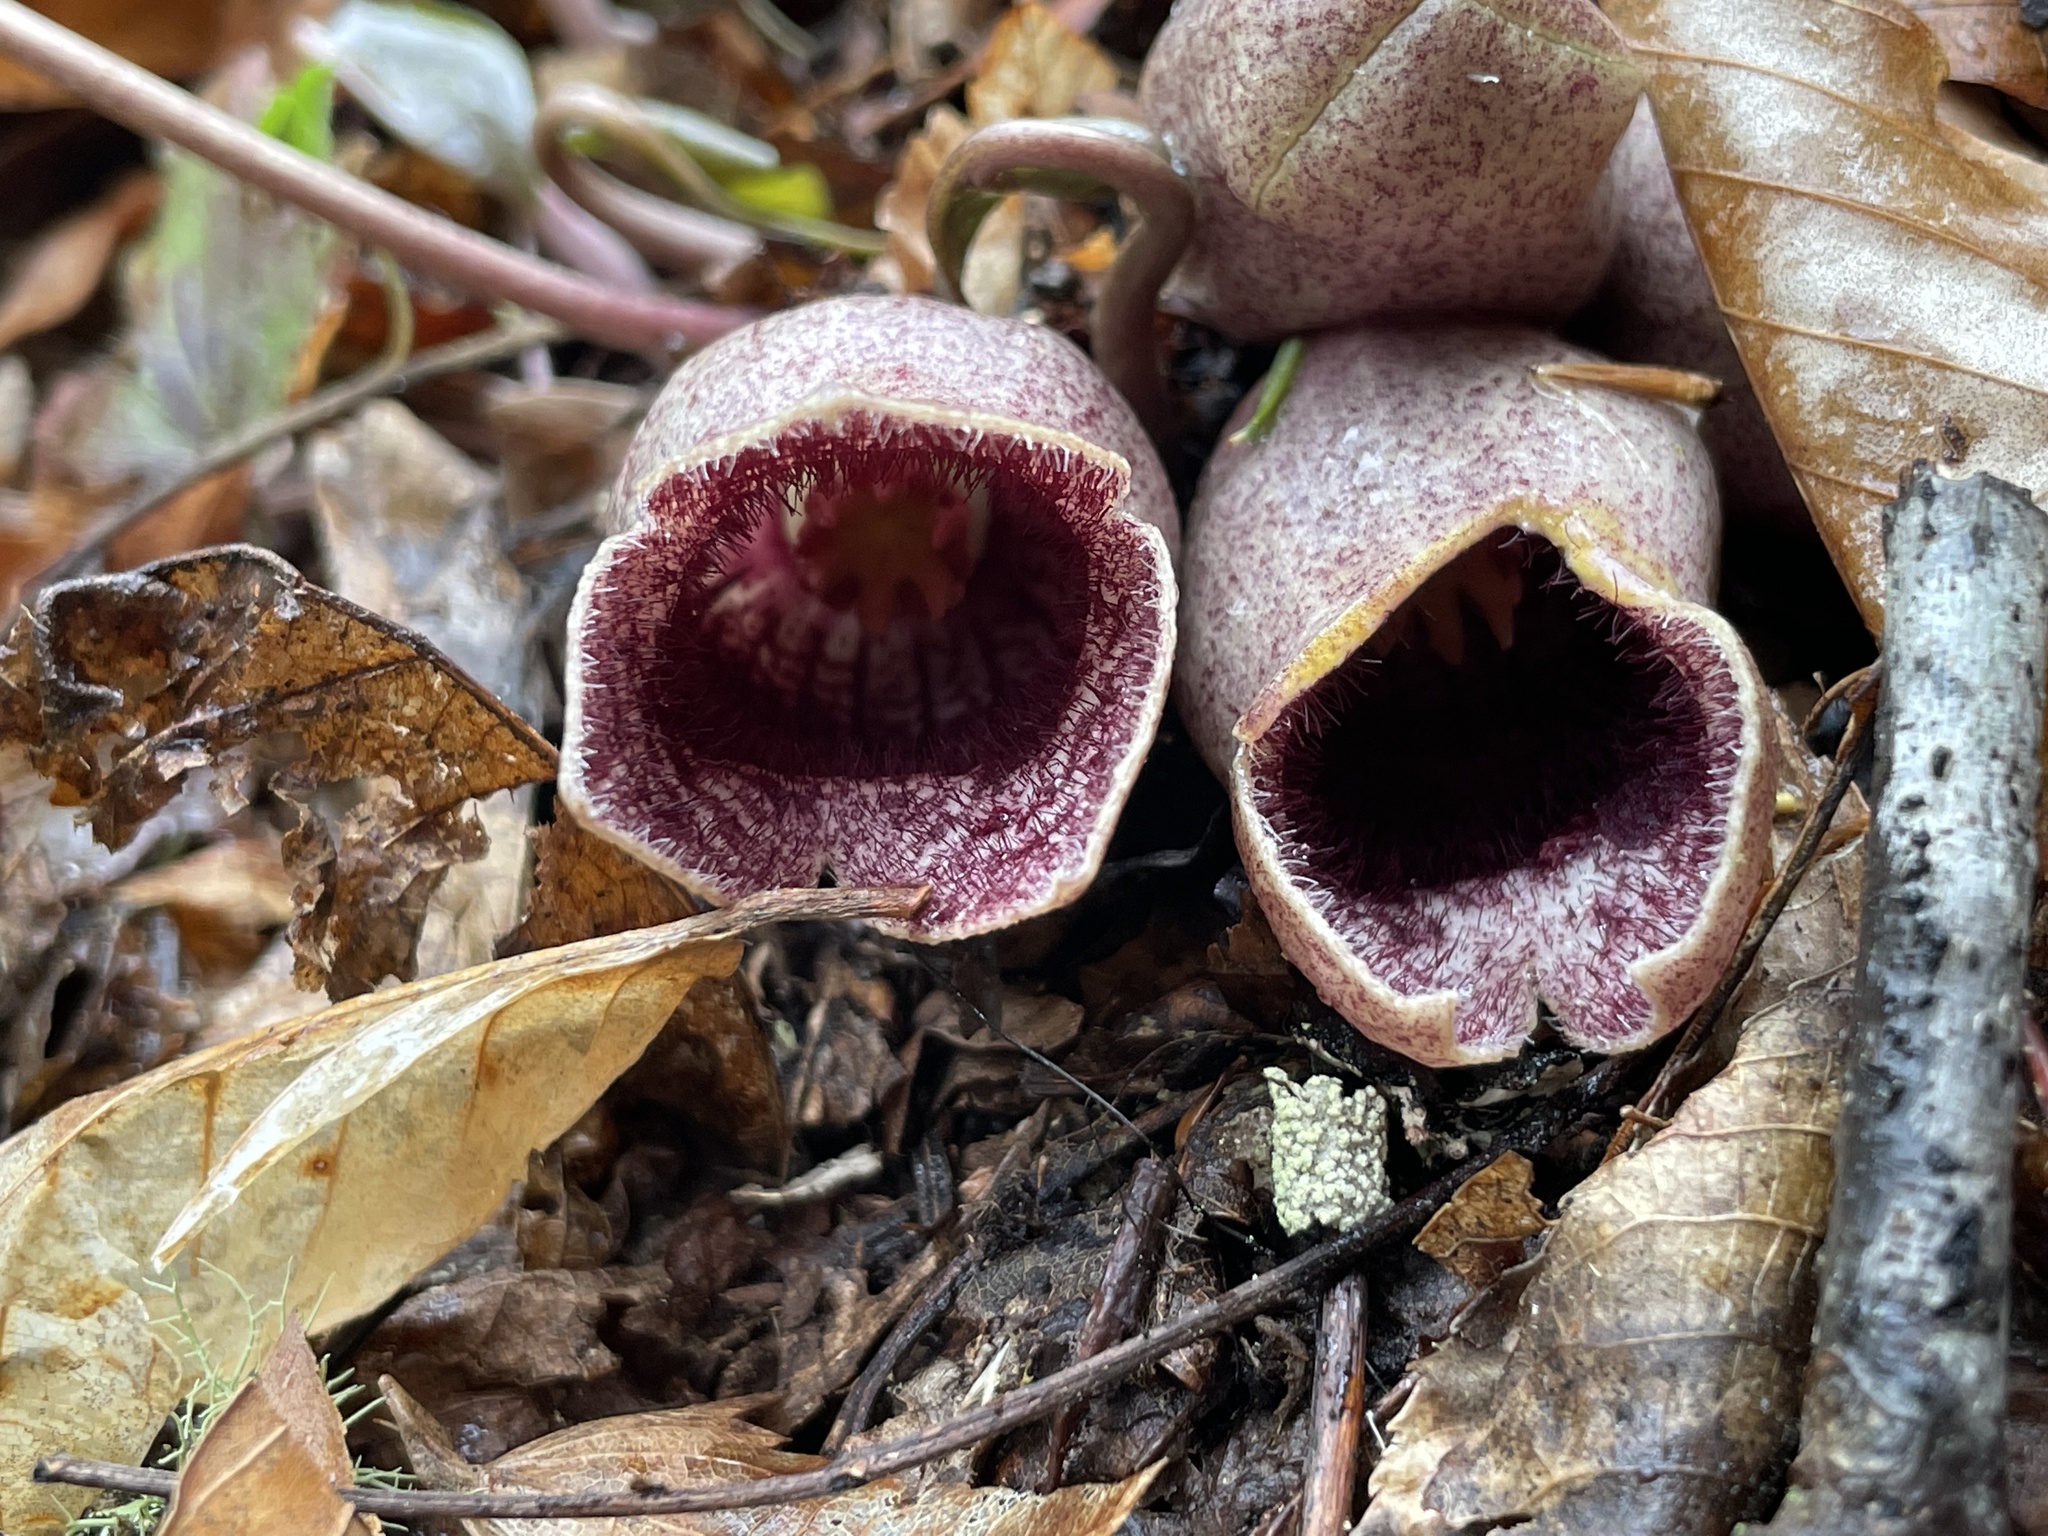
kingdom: Plantae
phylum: Tracheophyta
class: Magnoliopsida
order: Piperales
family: Aristolochiaceae
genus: Hexastylis
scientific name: Hexastylis shuttleworthii
